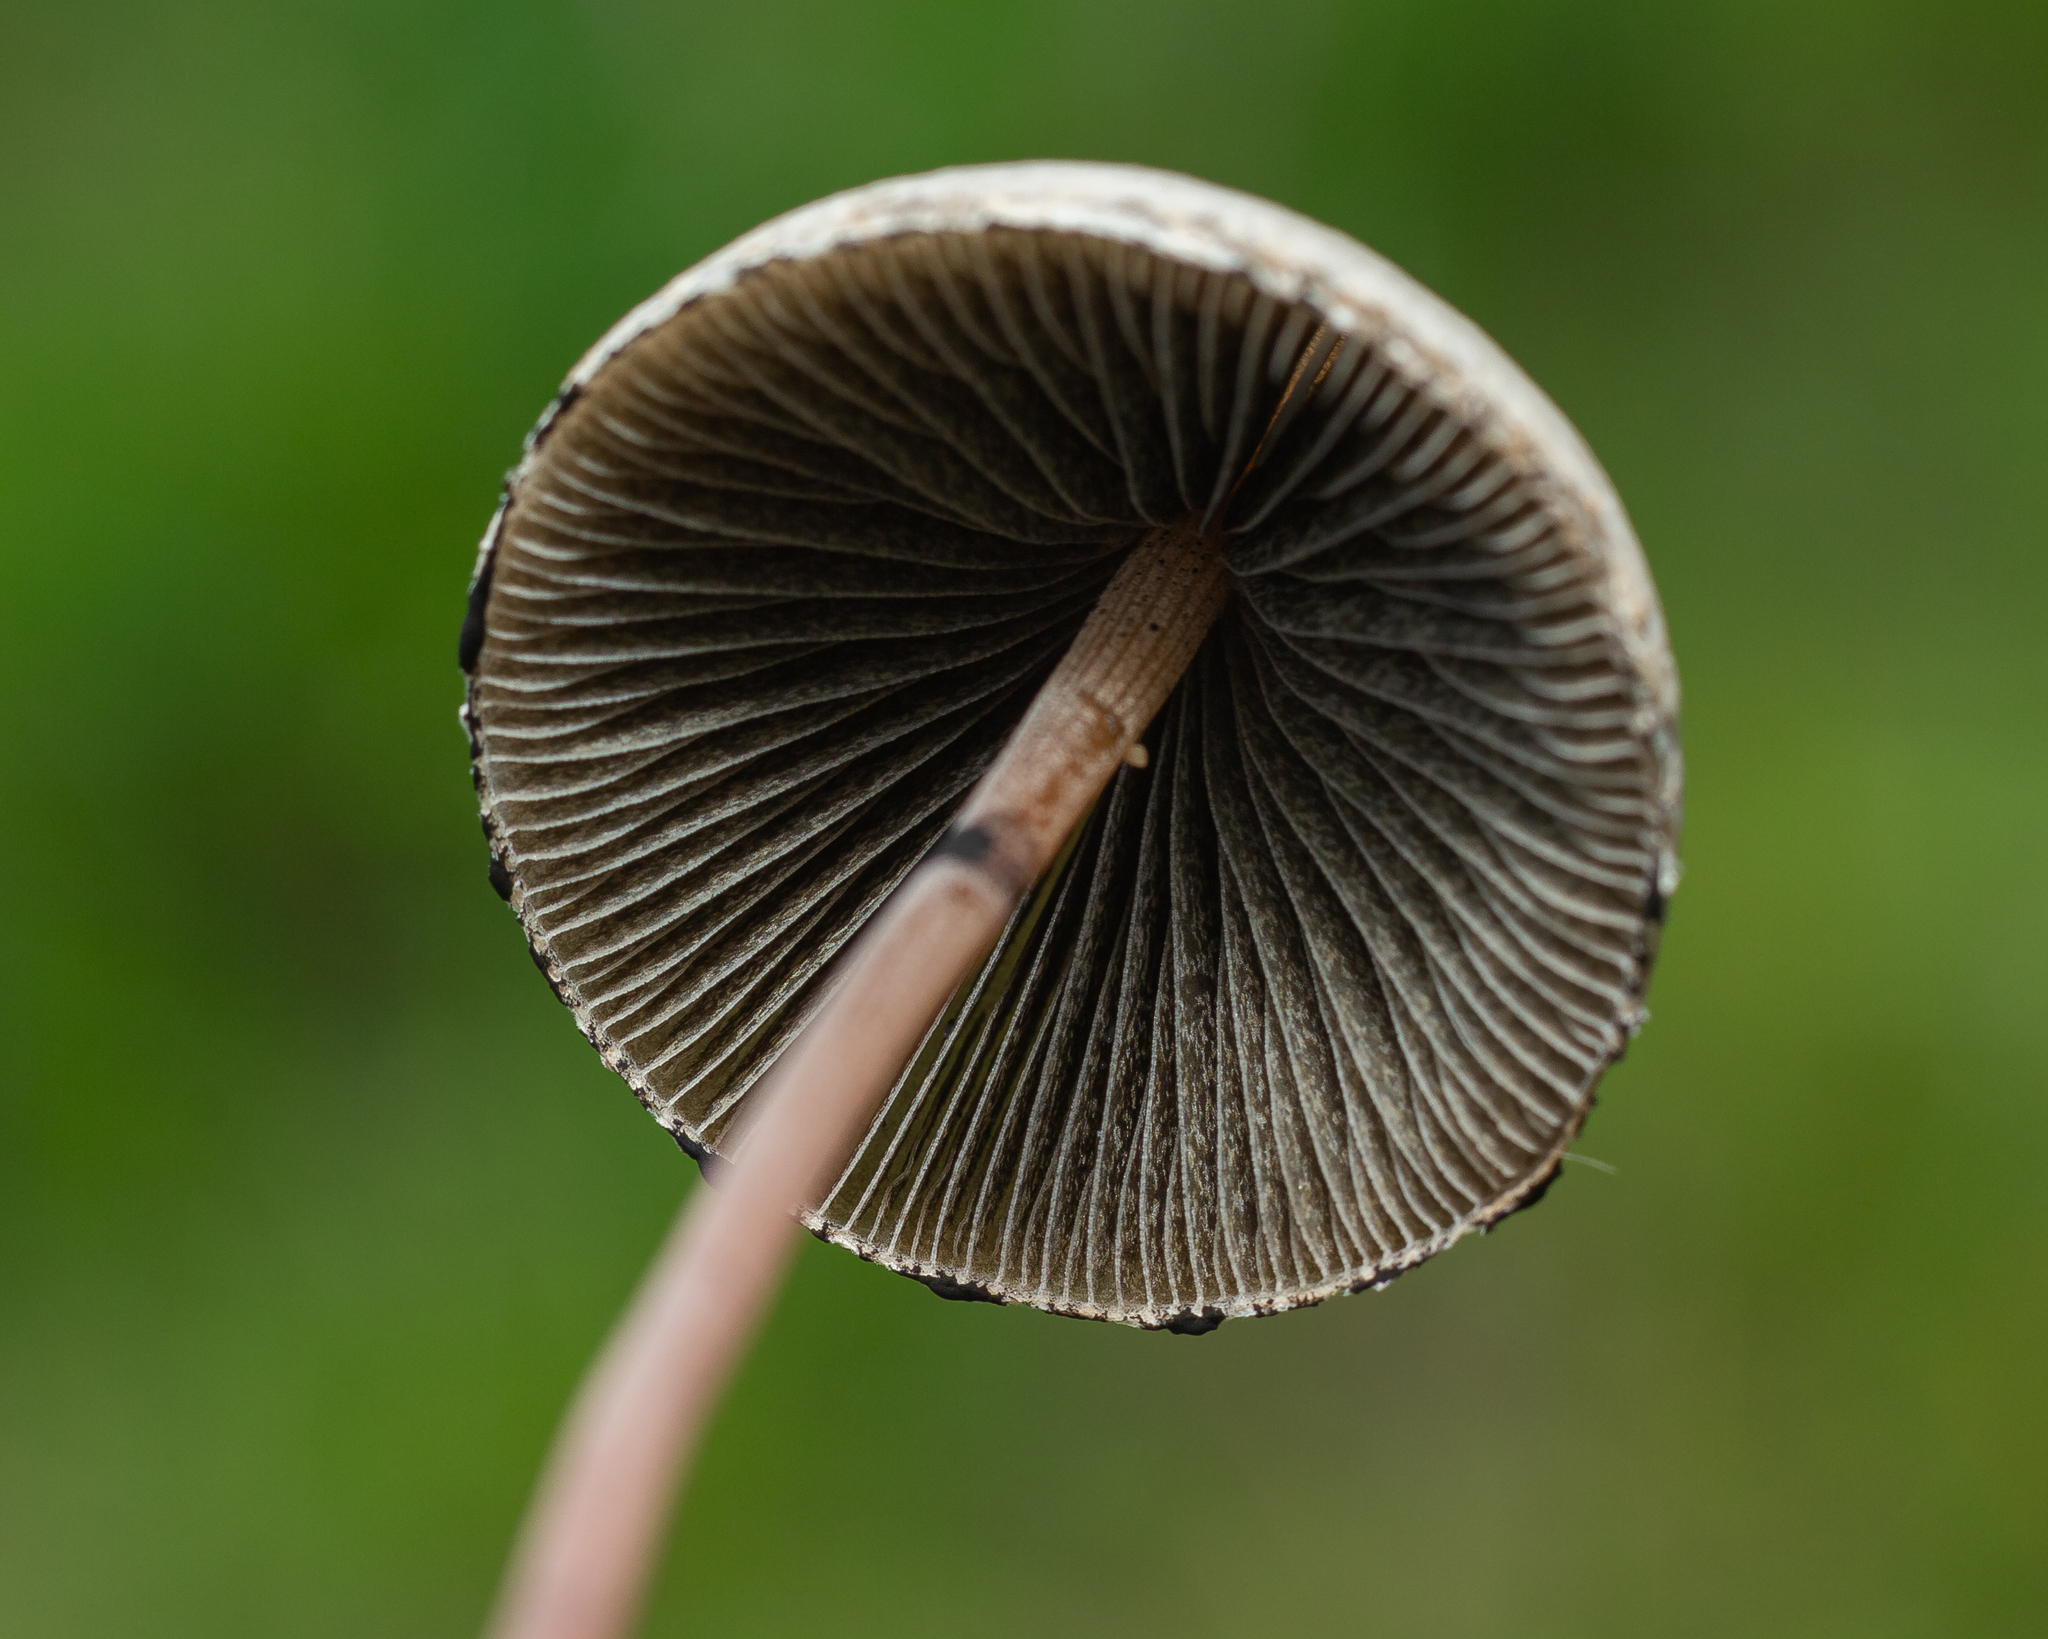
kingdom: Fungi
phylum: Basidiomycota
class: Agaricomycetes
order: Agaricales
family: Bolbitiaceae
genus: Panaeolus
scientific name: Panaeolus papilionaceus
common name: Petticoat mottlegill
